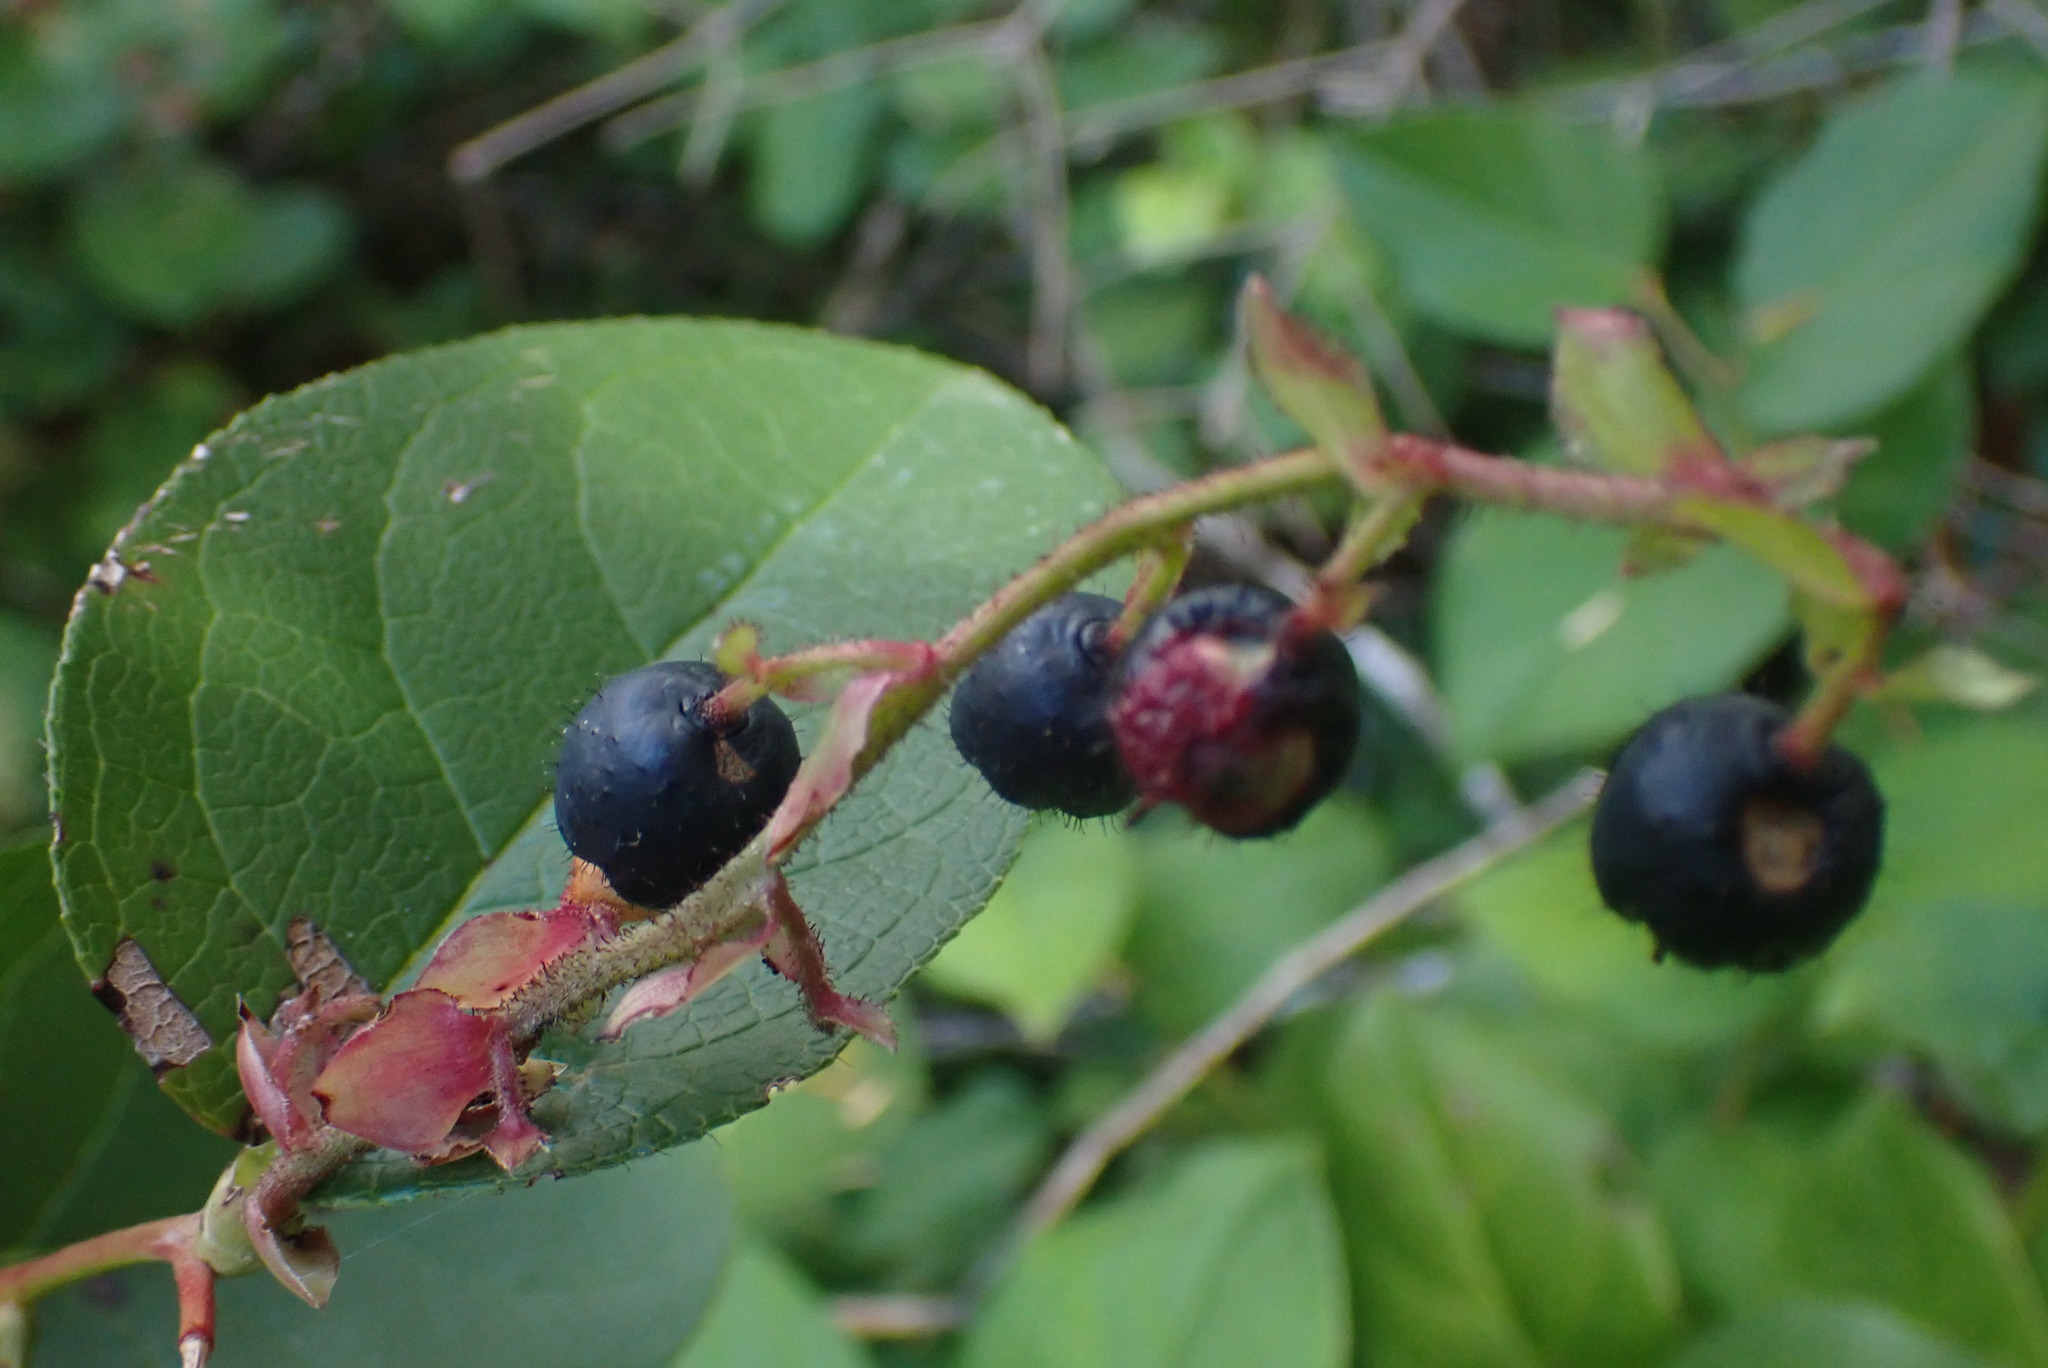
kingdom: Plantae
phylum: Tracheophyta
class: Magnoliopsida
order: Ericales
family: Ericaceae
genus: Gaultheria
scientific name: Gaultheria shallon
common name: Shallon
